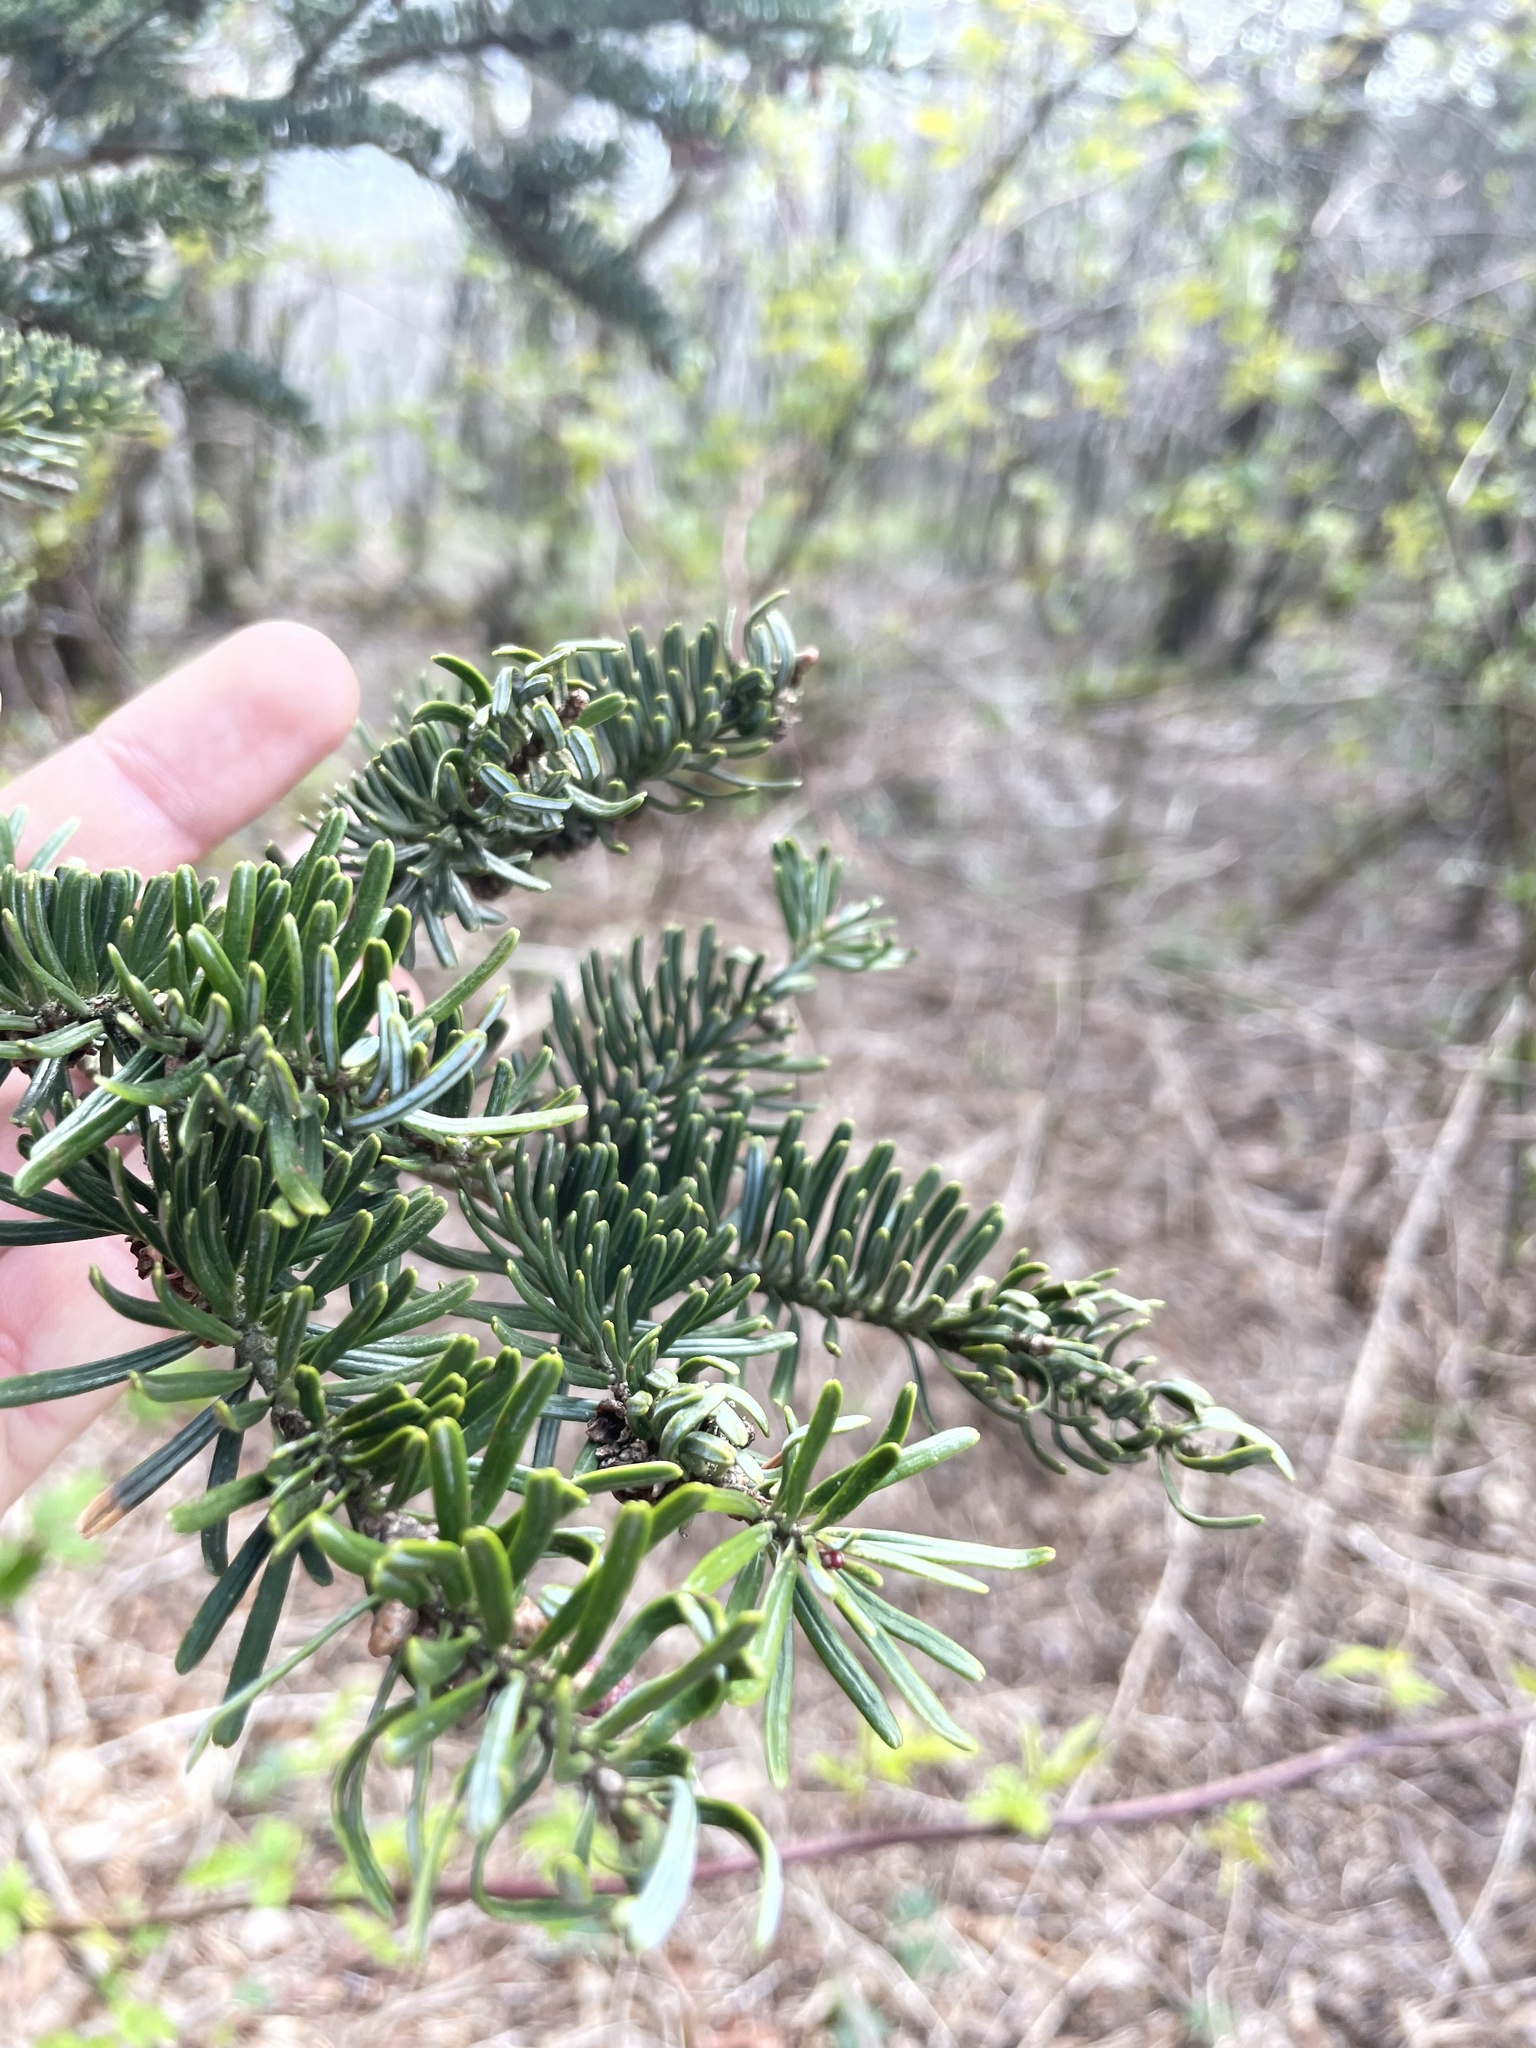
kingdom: Plantae
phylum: Tracheophyta
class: Pinopsida
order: Pinales
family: Pinaceae
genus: Abies
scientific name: Abies fraseri
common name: Fraser fir
